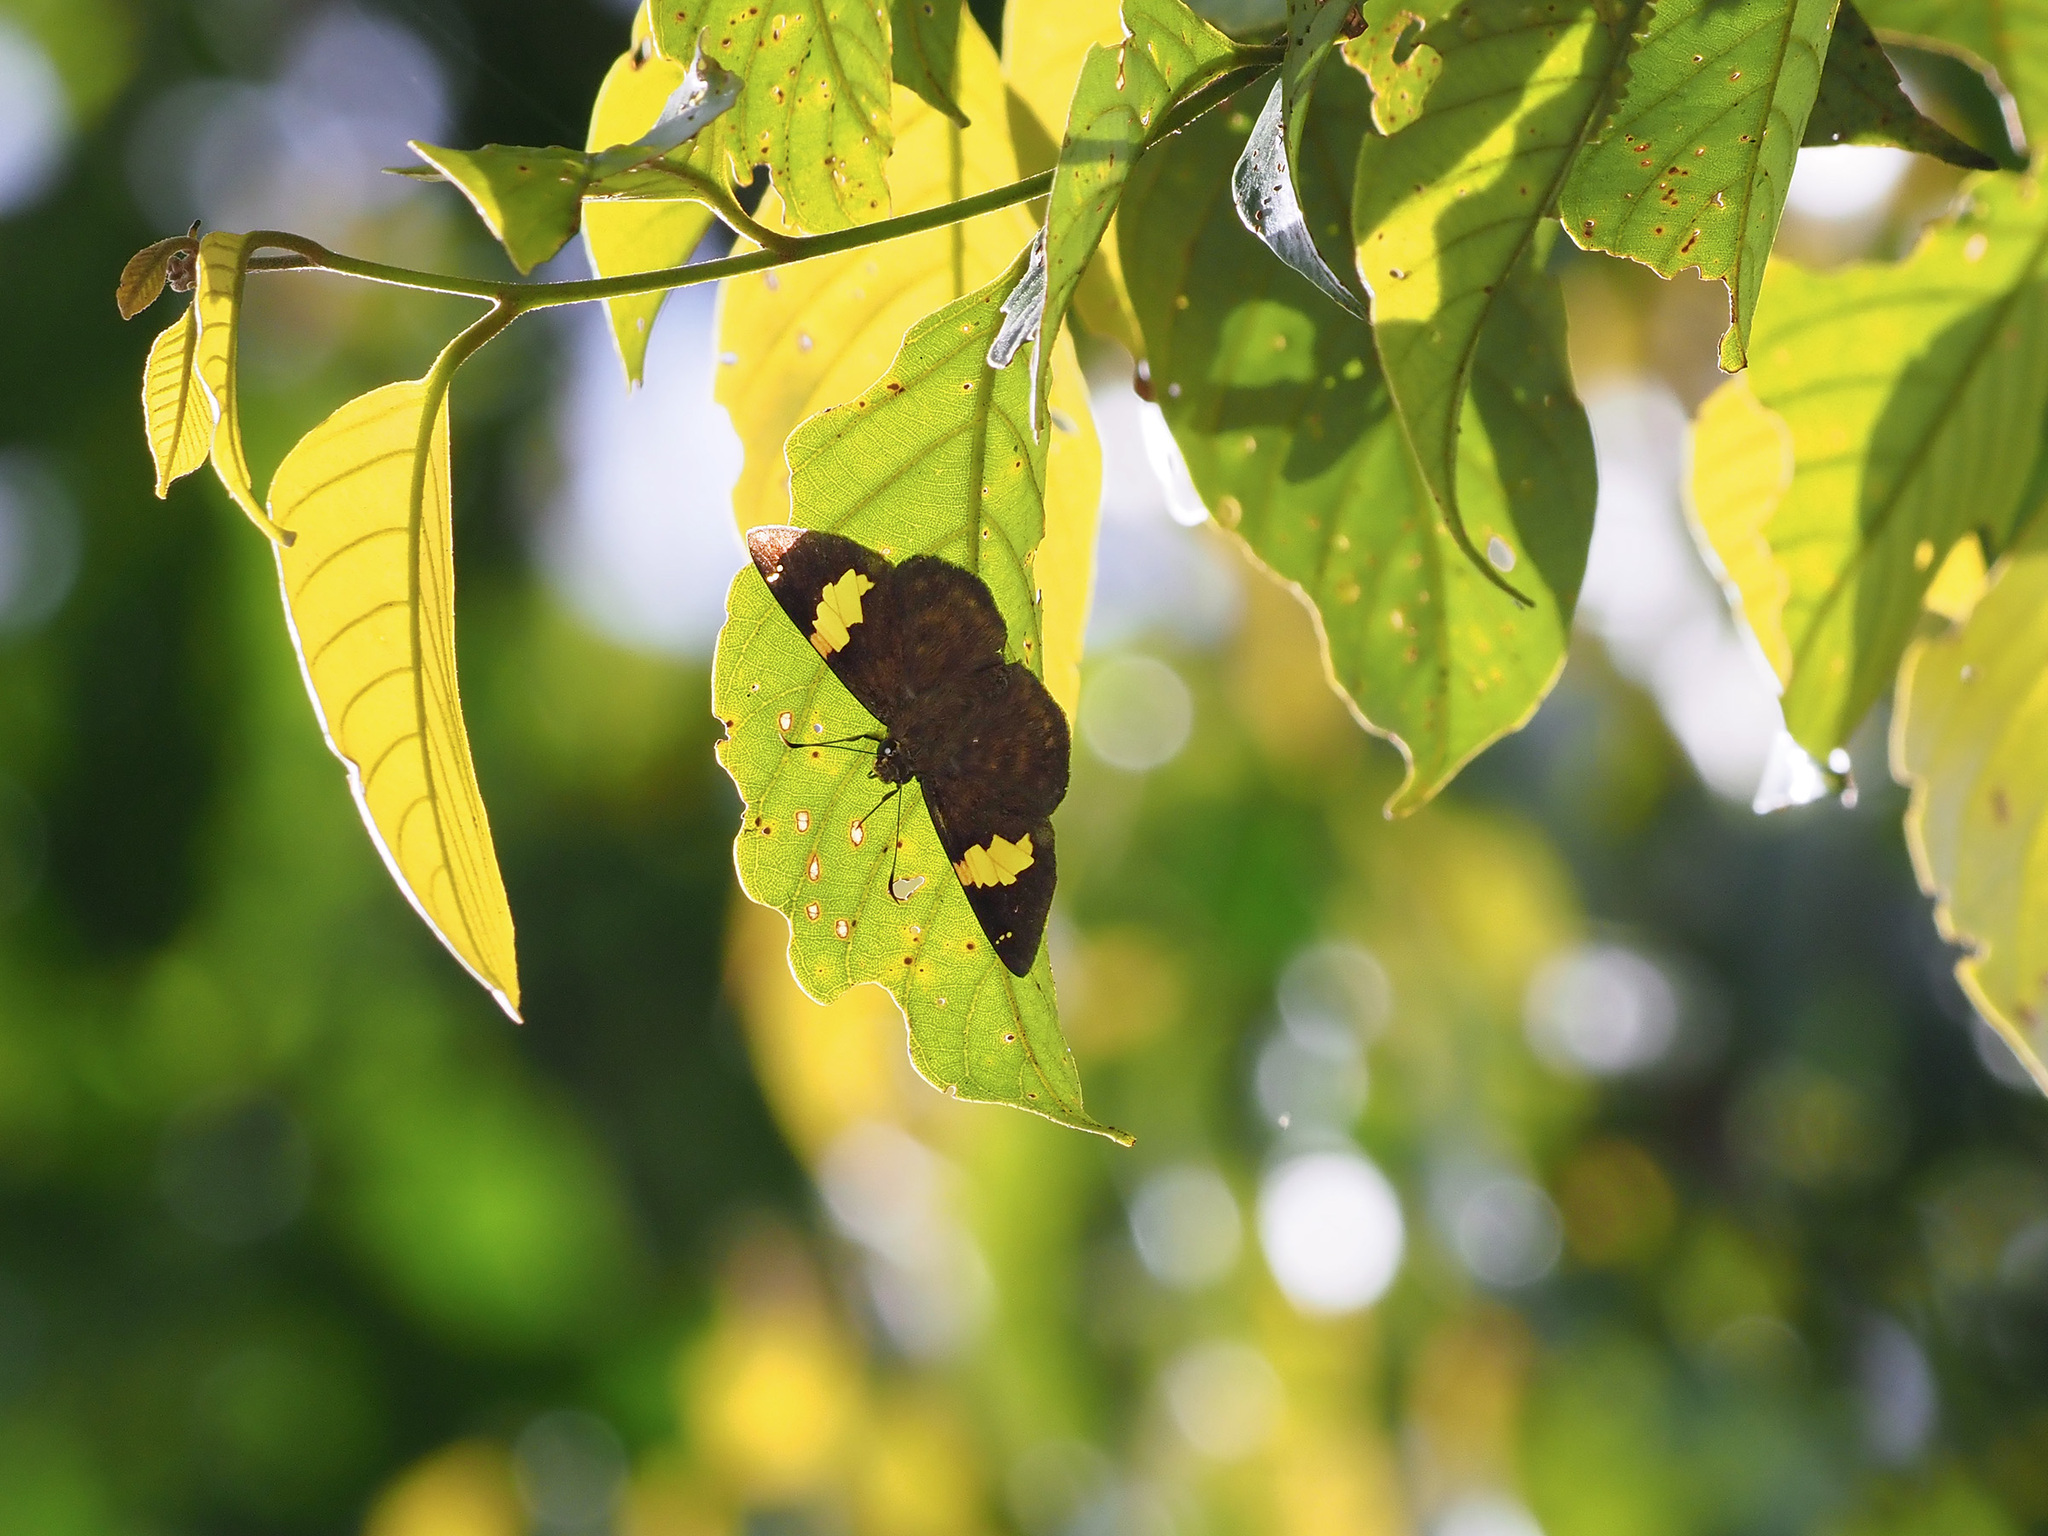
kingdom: Animalia
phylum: Arthropoda
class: Insecta
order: Lepidoptera
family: Hesperiidae
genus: Celaenorrhinus
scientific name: Celaenorrhinus inaequalis
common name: Unequal banded flat
